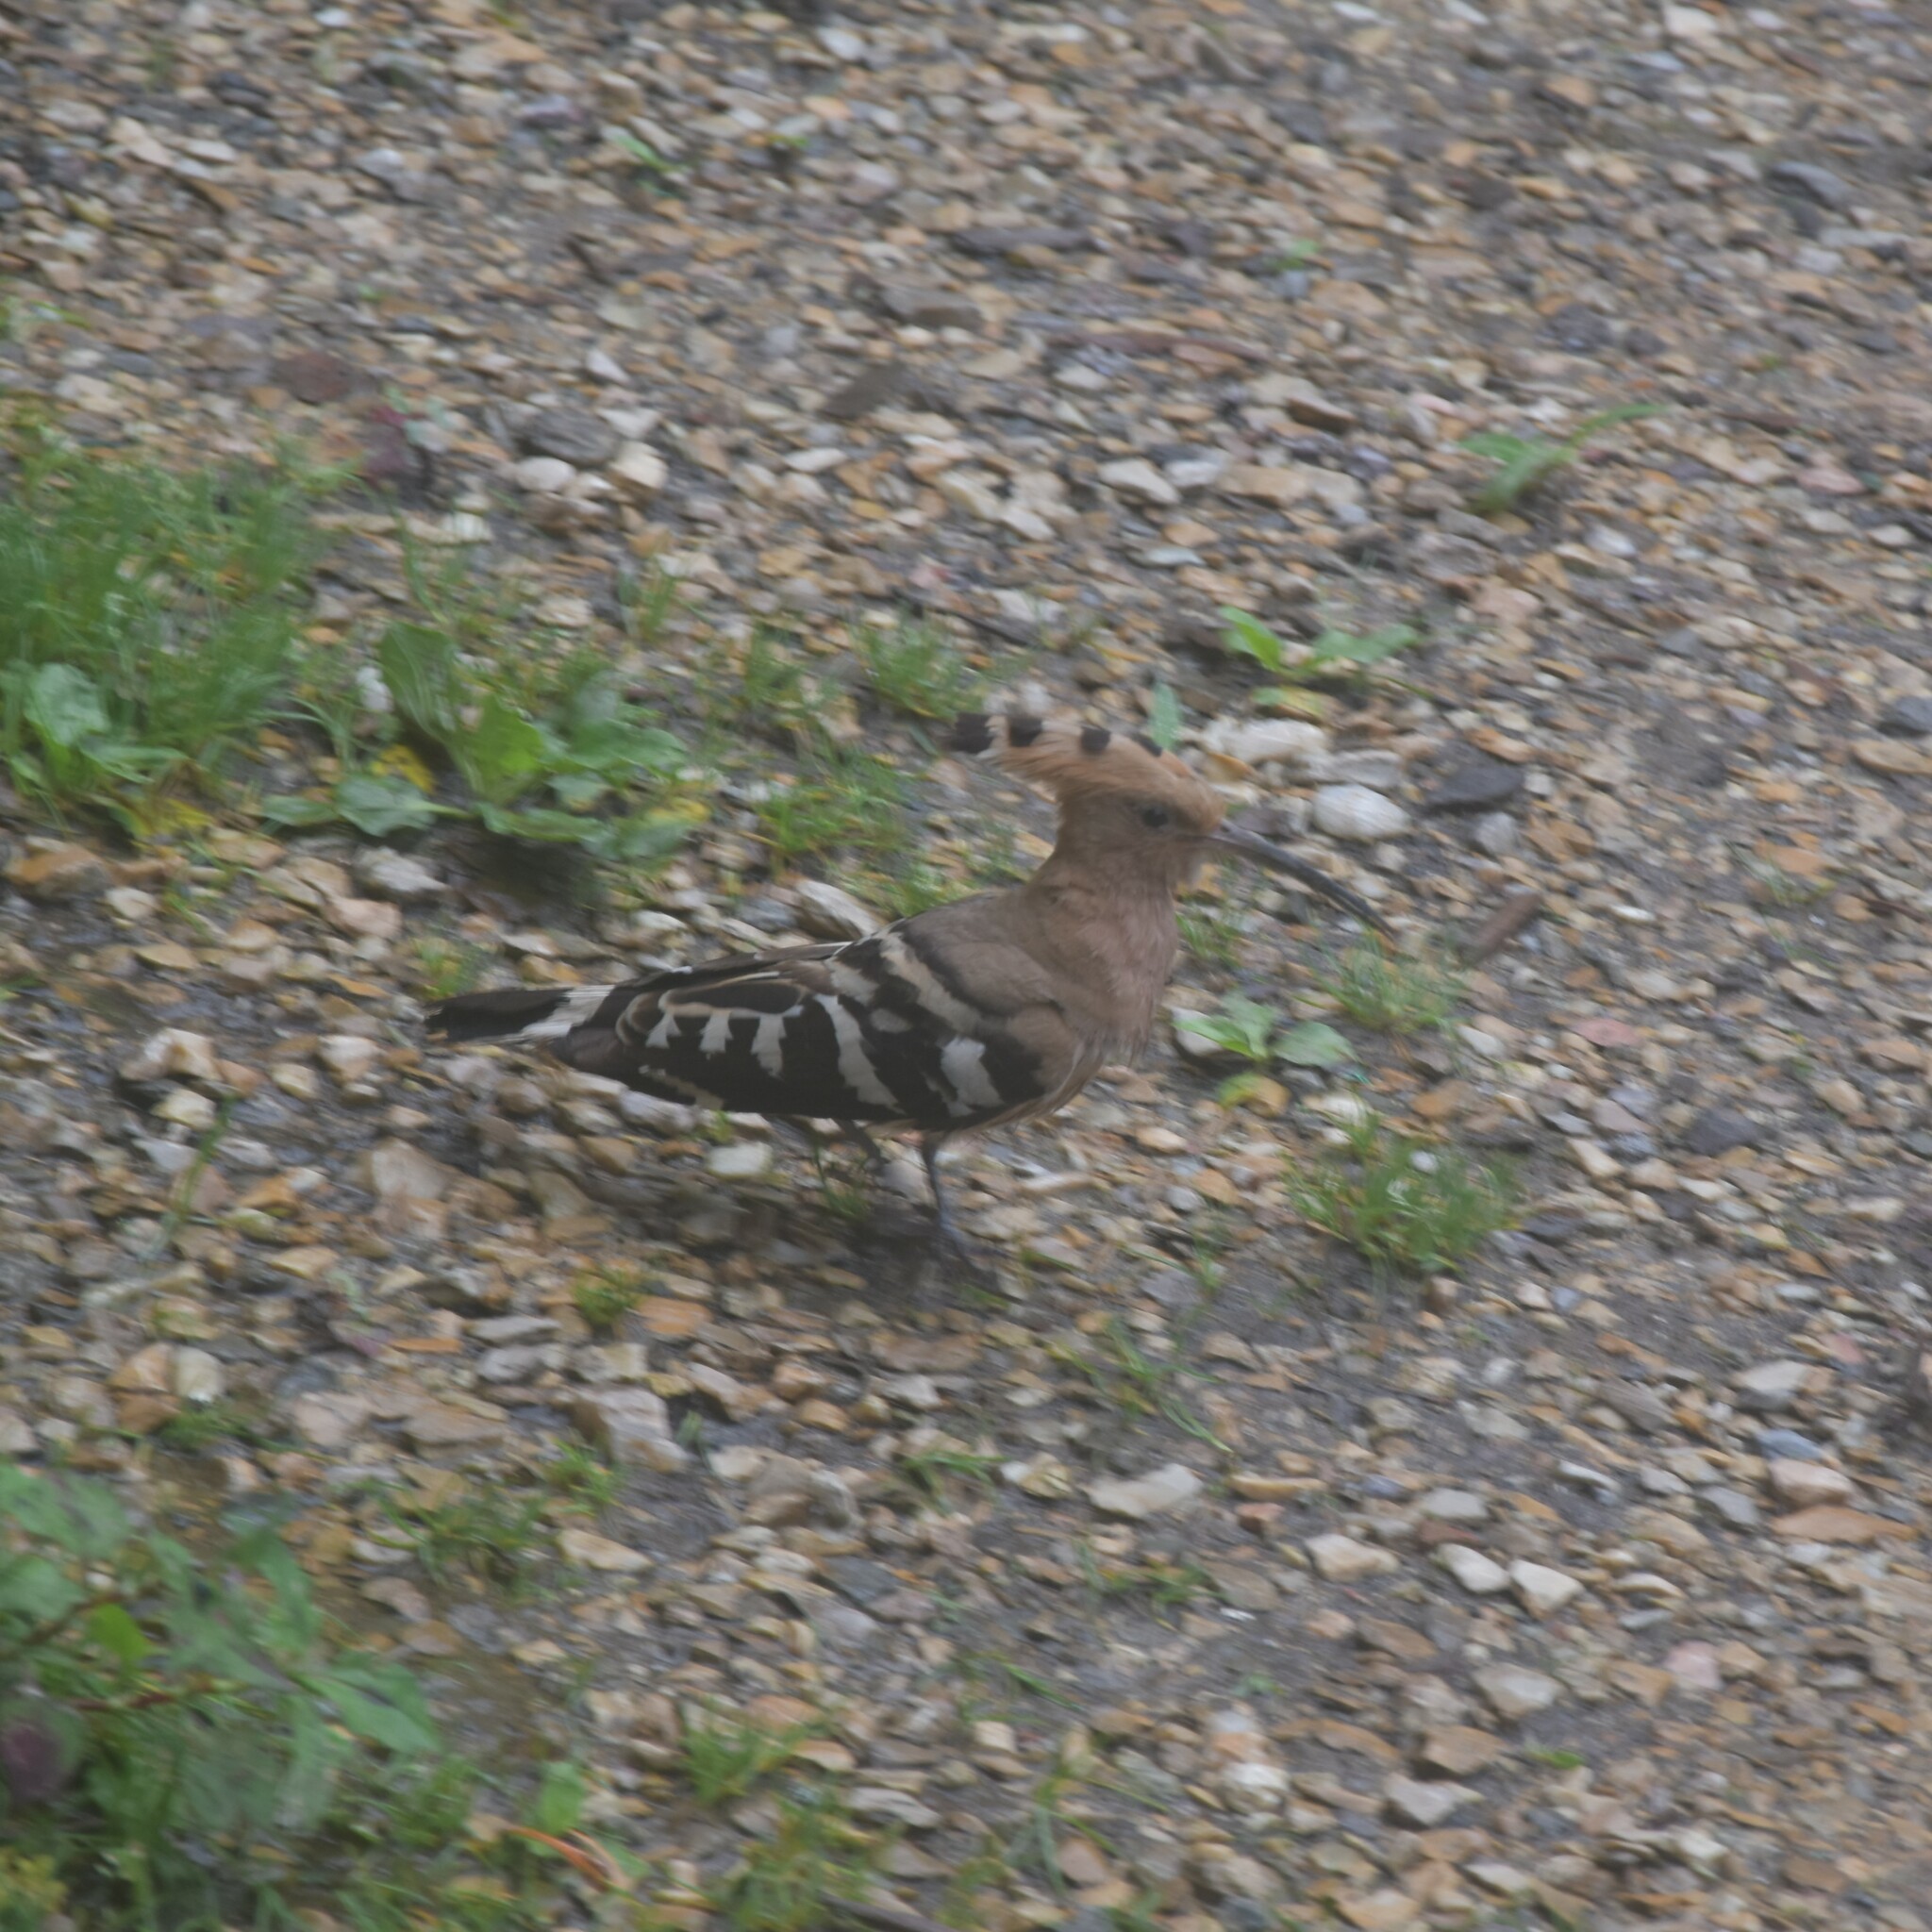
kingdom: Animalia
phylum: Chordata
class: Aves
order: Bucerotiformes
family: Upupidae
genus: Upupa
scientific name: Upupa epops
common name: Eurasian hoopoe
